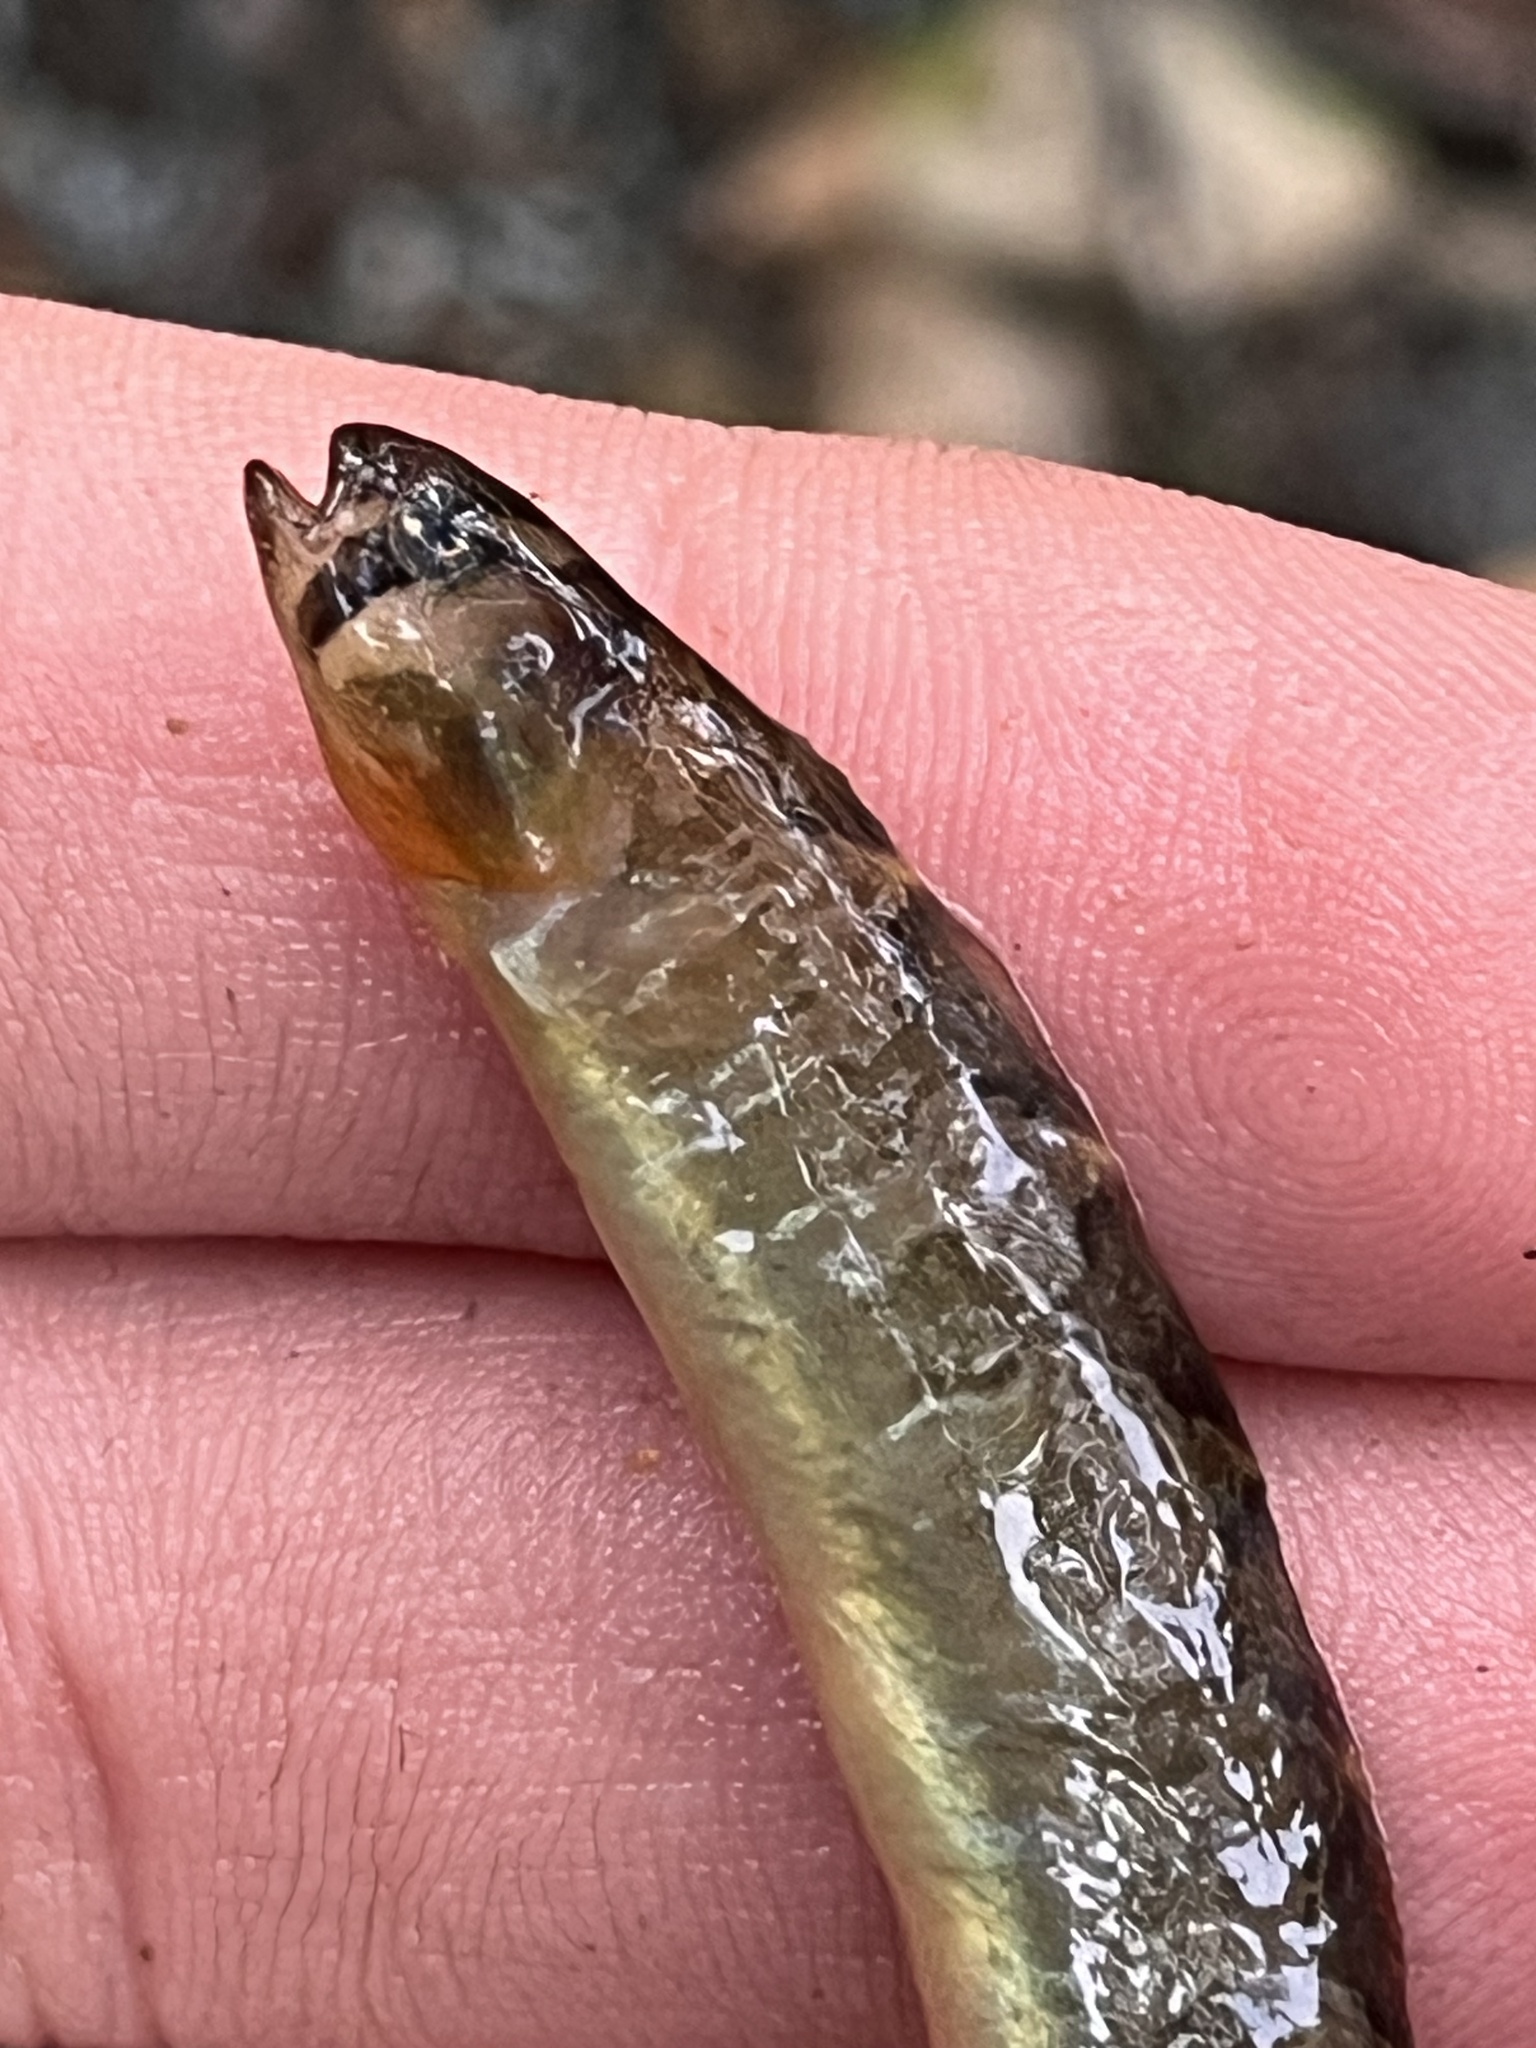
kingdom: Animalia
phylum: Chordata
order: Perciformes
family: Pholidae
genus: Pholis
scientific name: Pholis ornata
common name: Saddleback gunnel
